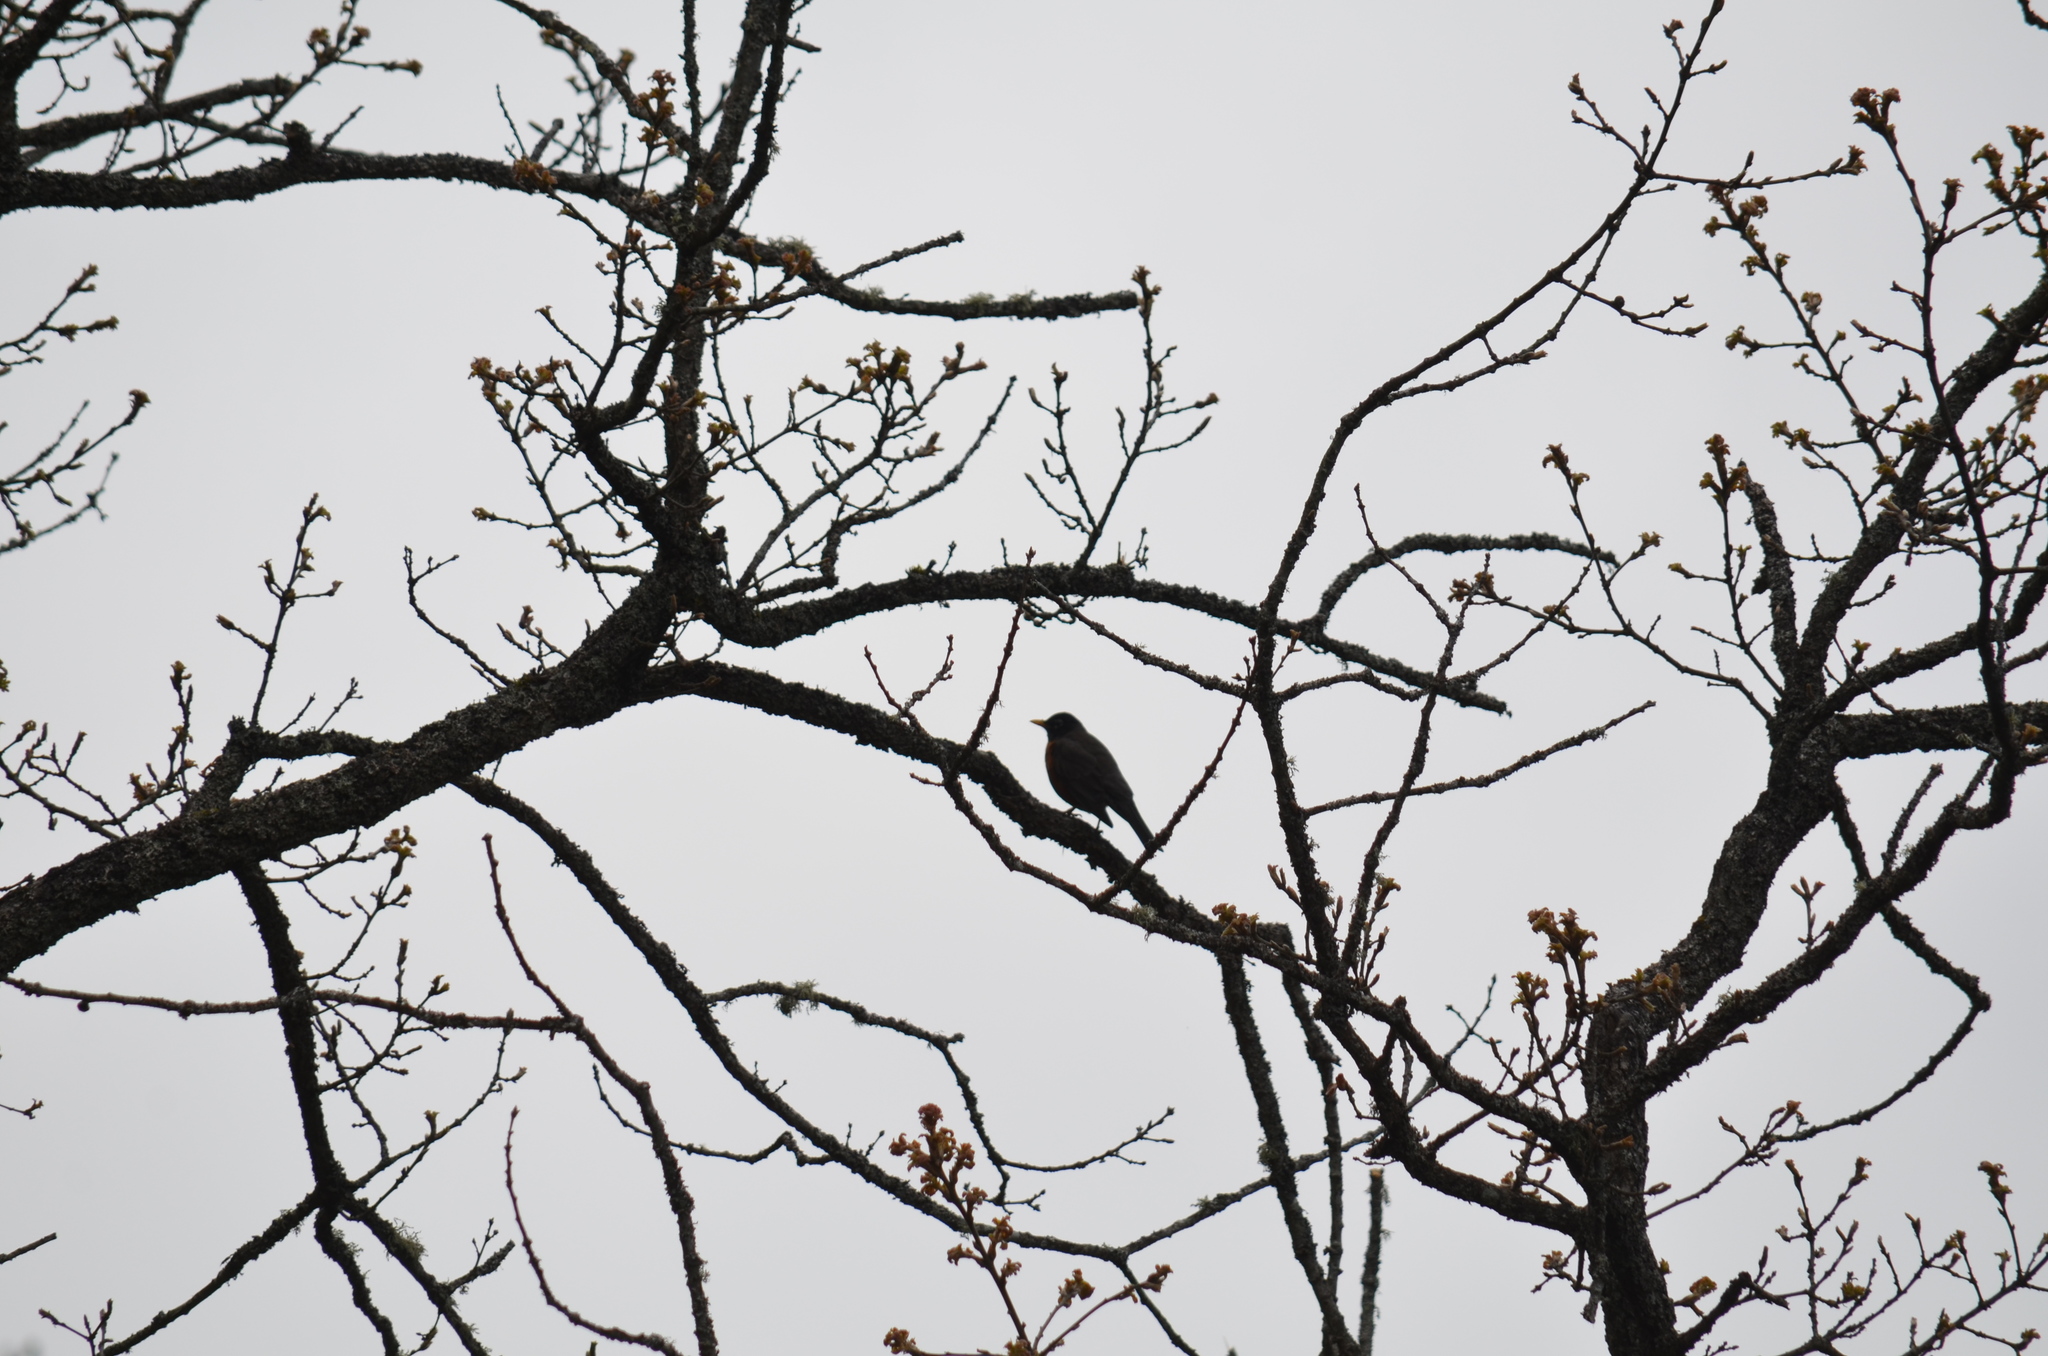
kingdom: Animalia
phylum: Chordata
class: Aves
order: Passeriformes
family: Turdidae
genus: Turdus
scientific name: Turdus migratorius
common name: American robin
